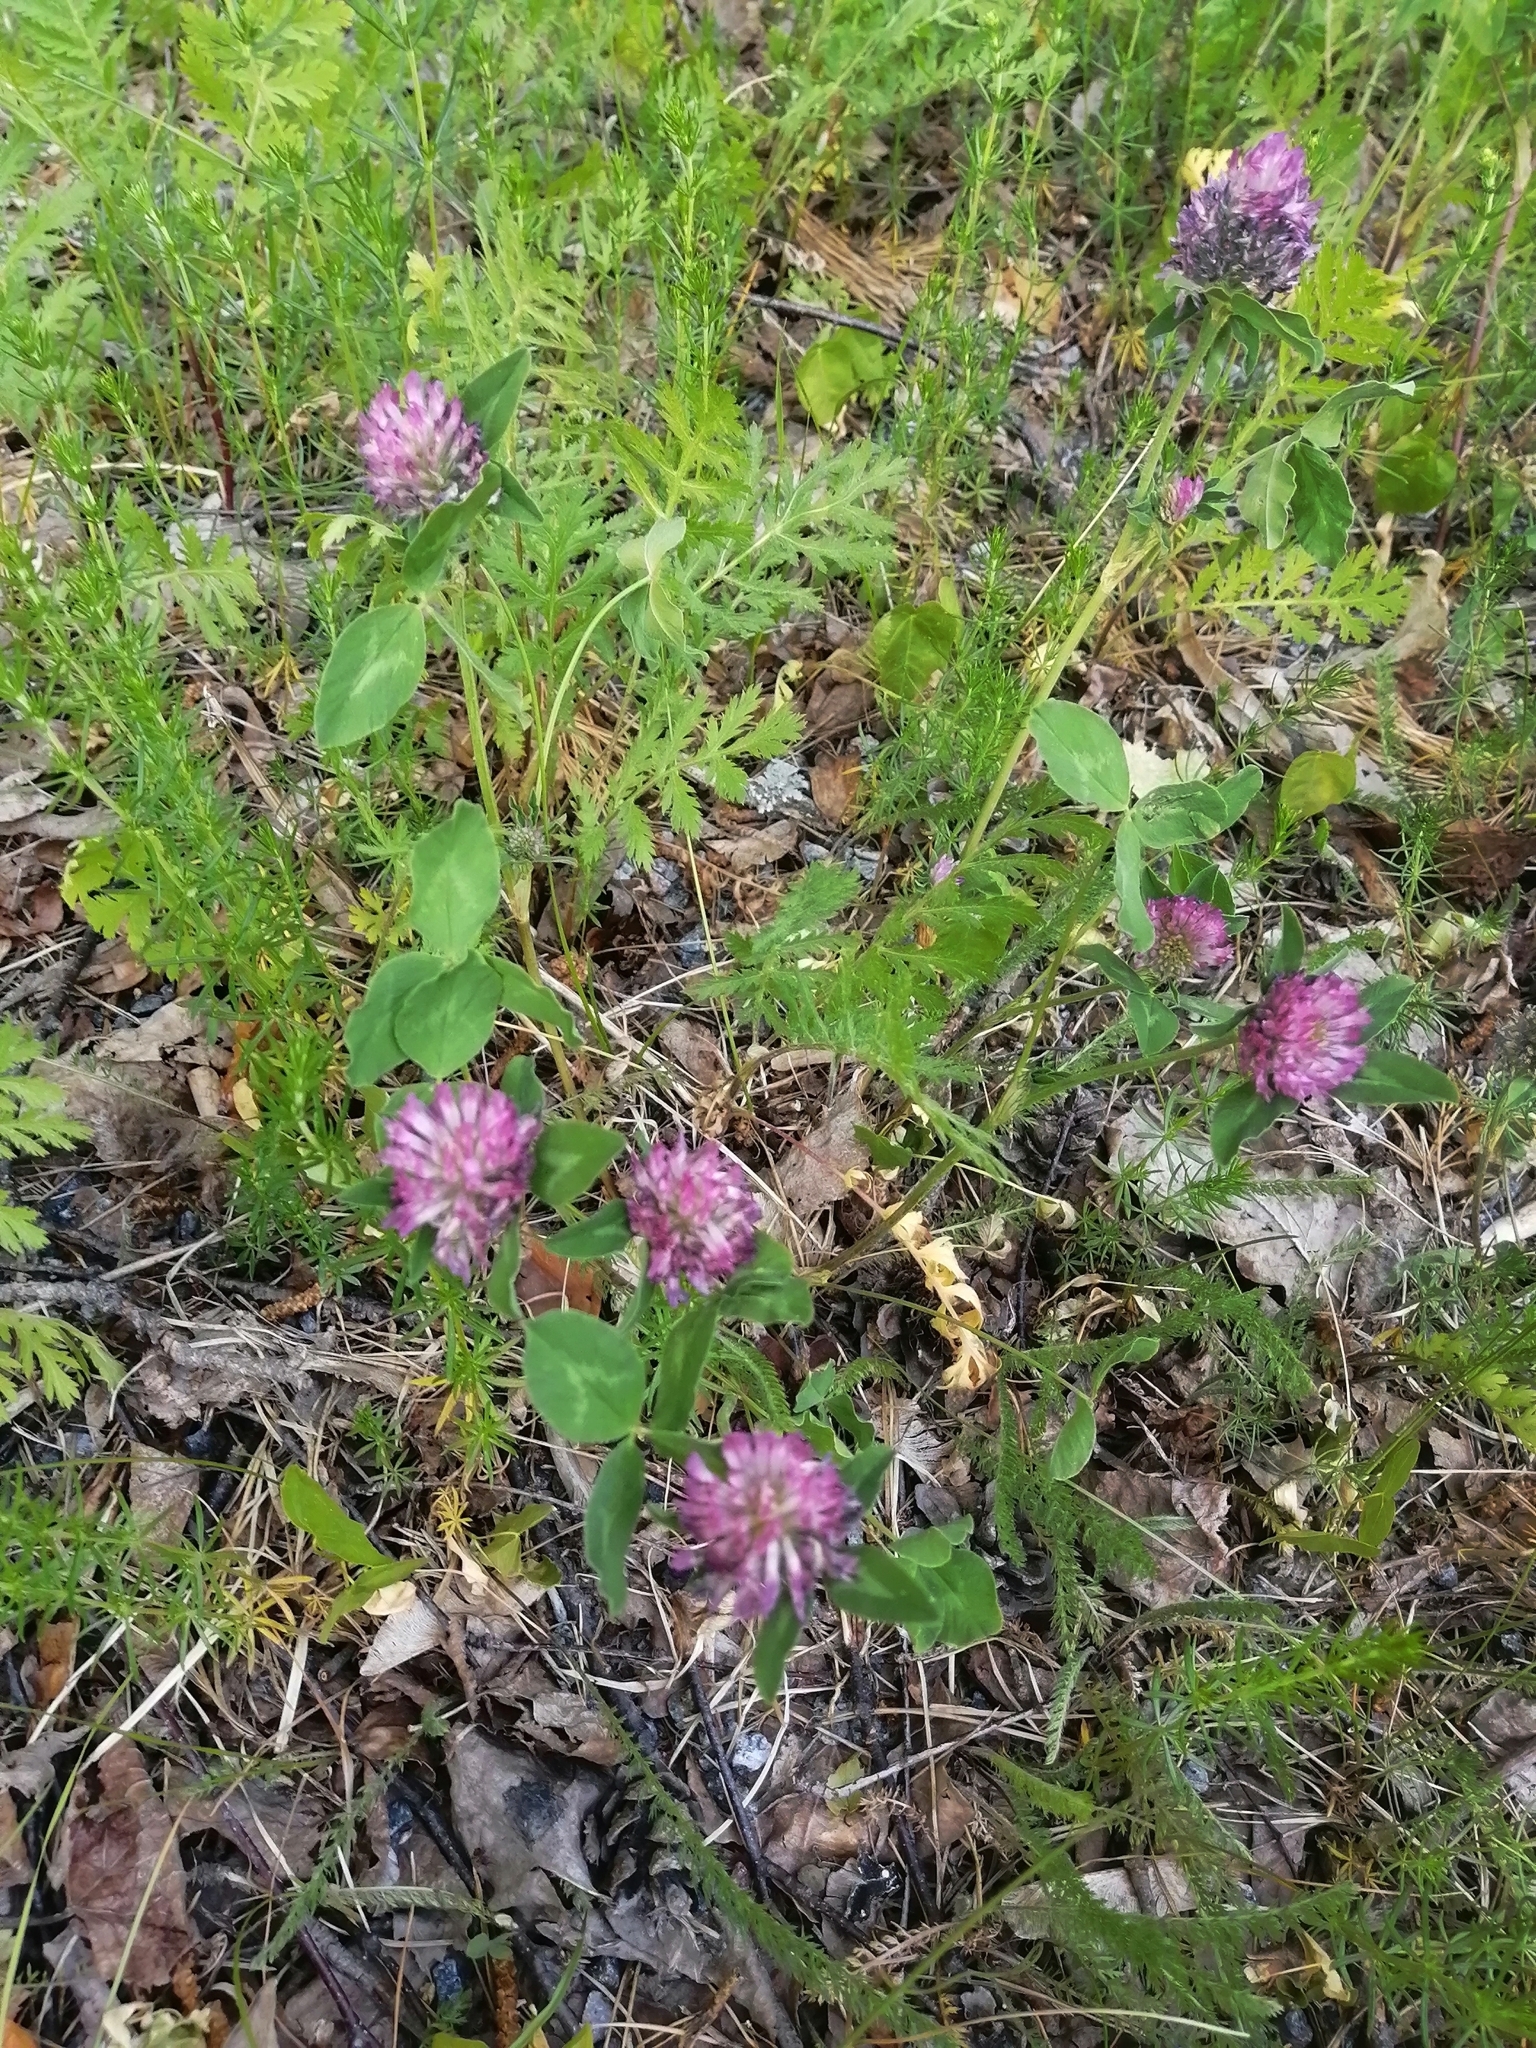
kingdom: Plantae
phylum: Tracheophyta
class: Magnoliopsida
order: Fabales
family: Fabaceae
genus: Trifolium
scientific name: Trifolium pratense
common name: Red clover
